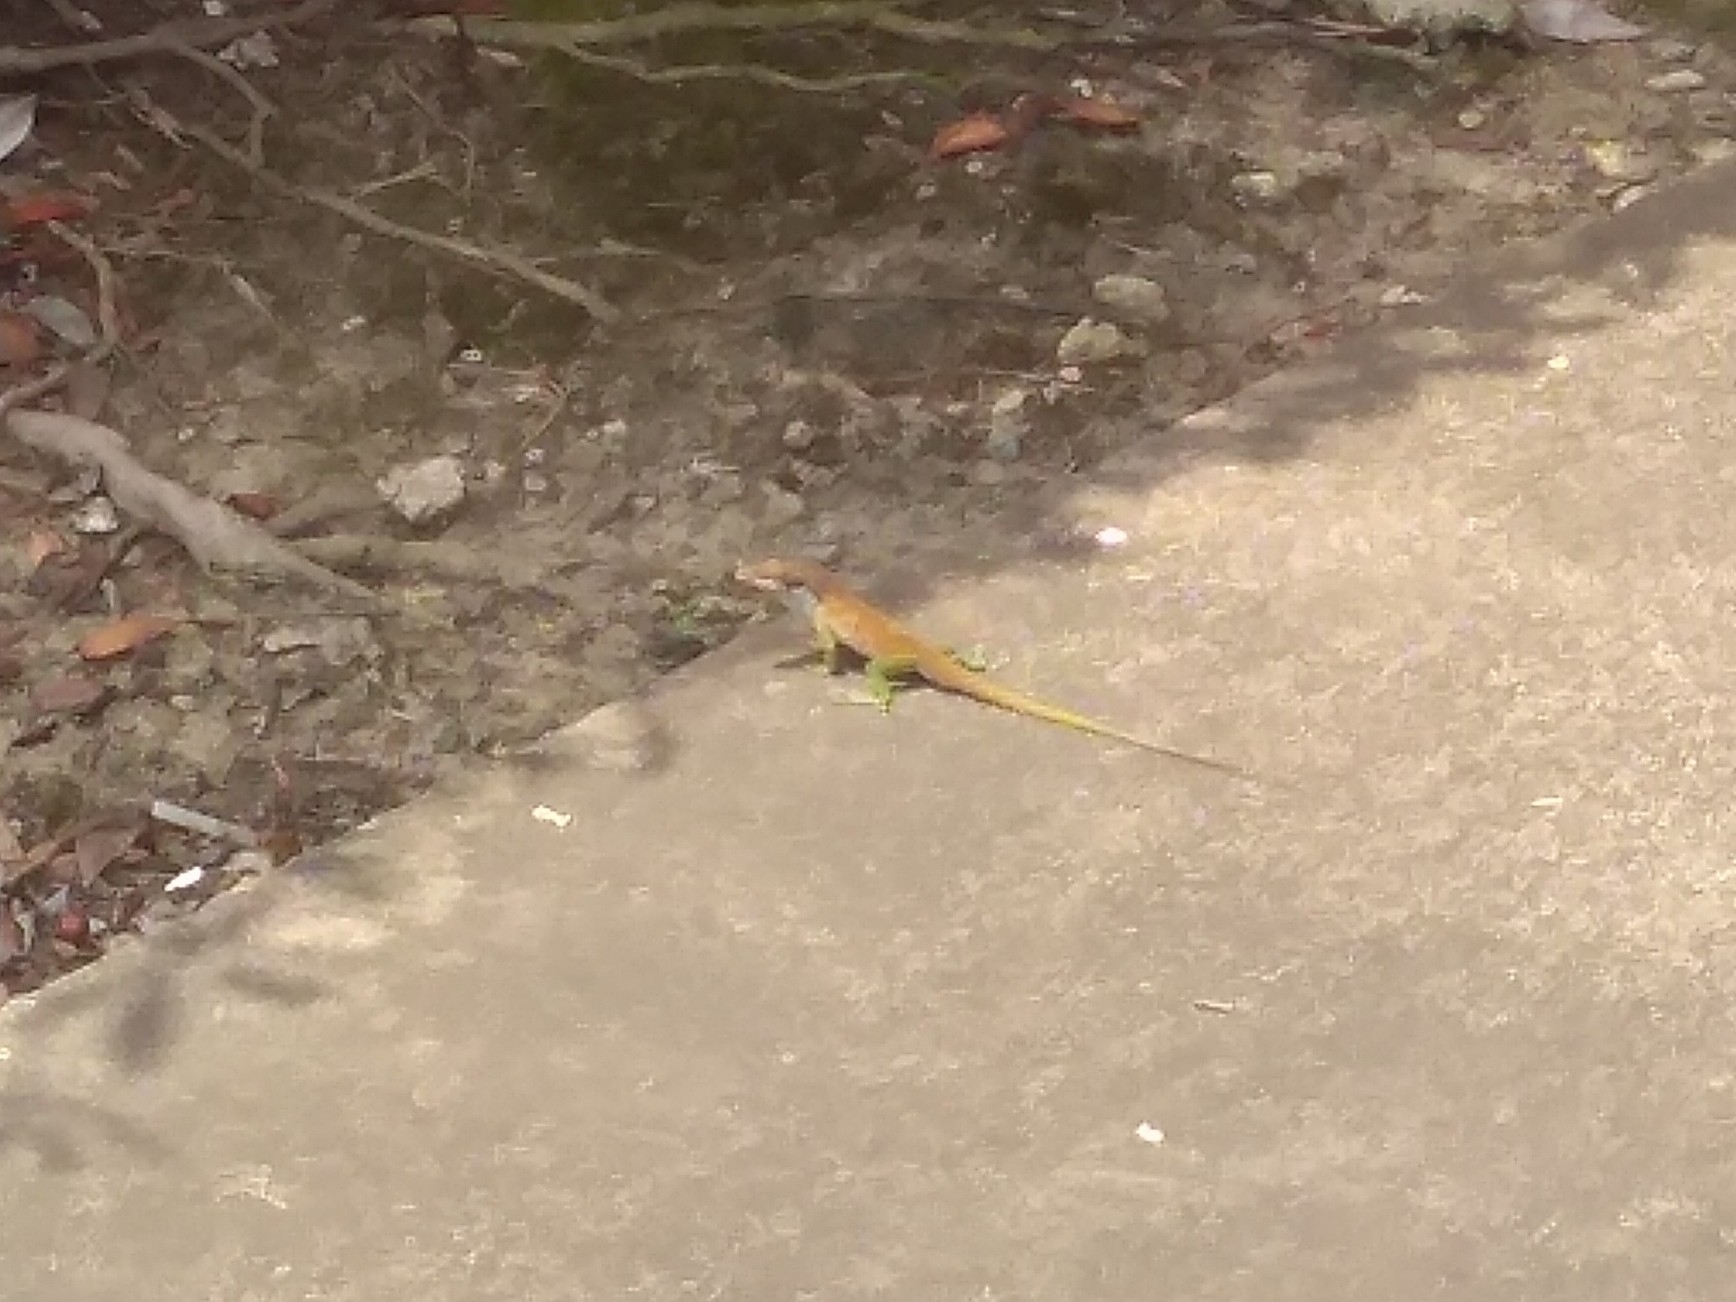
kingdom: Animalia
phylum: Chordata
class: Squamata
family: Dactyloidae
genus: Anolis
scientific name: Anolis carolinensis
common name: Green anole
